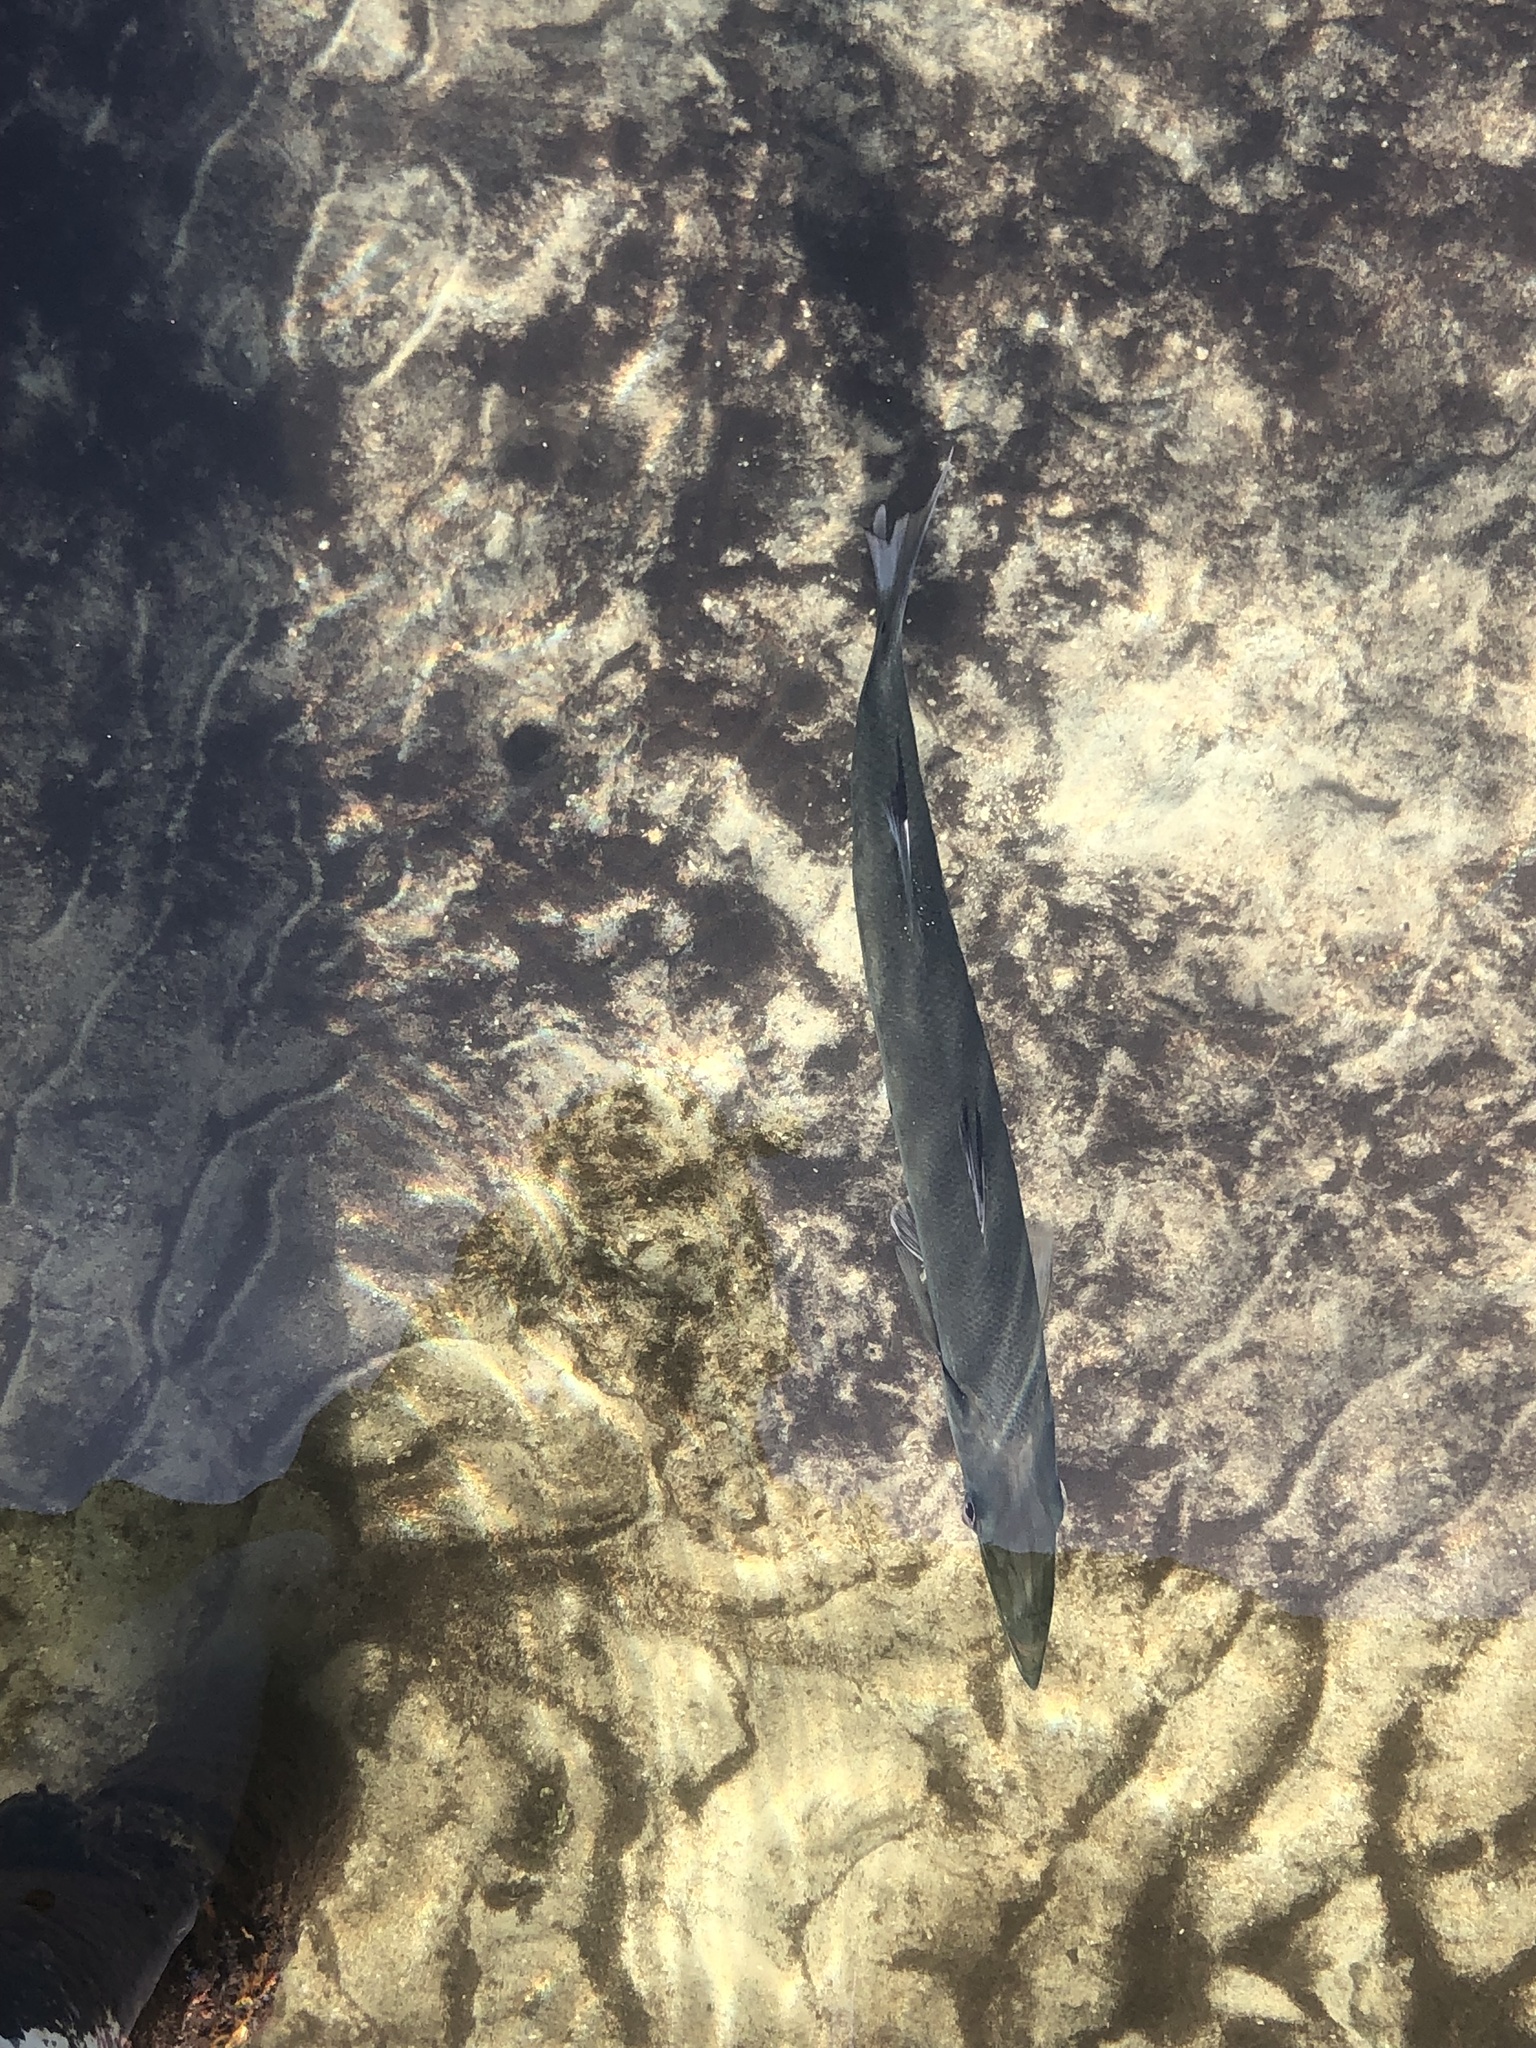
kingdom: Animalia
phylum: Chordata
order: Perciformes
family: Sphyraenidae
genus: Sphyraena
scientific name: Sphyraena barracuda
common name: Great barracuda
